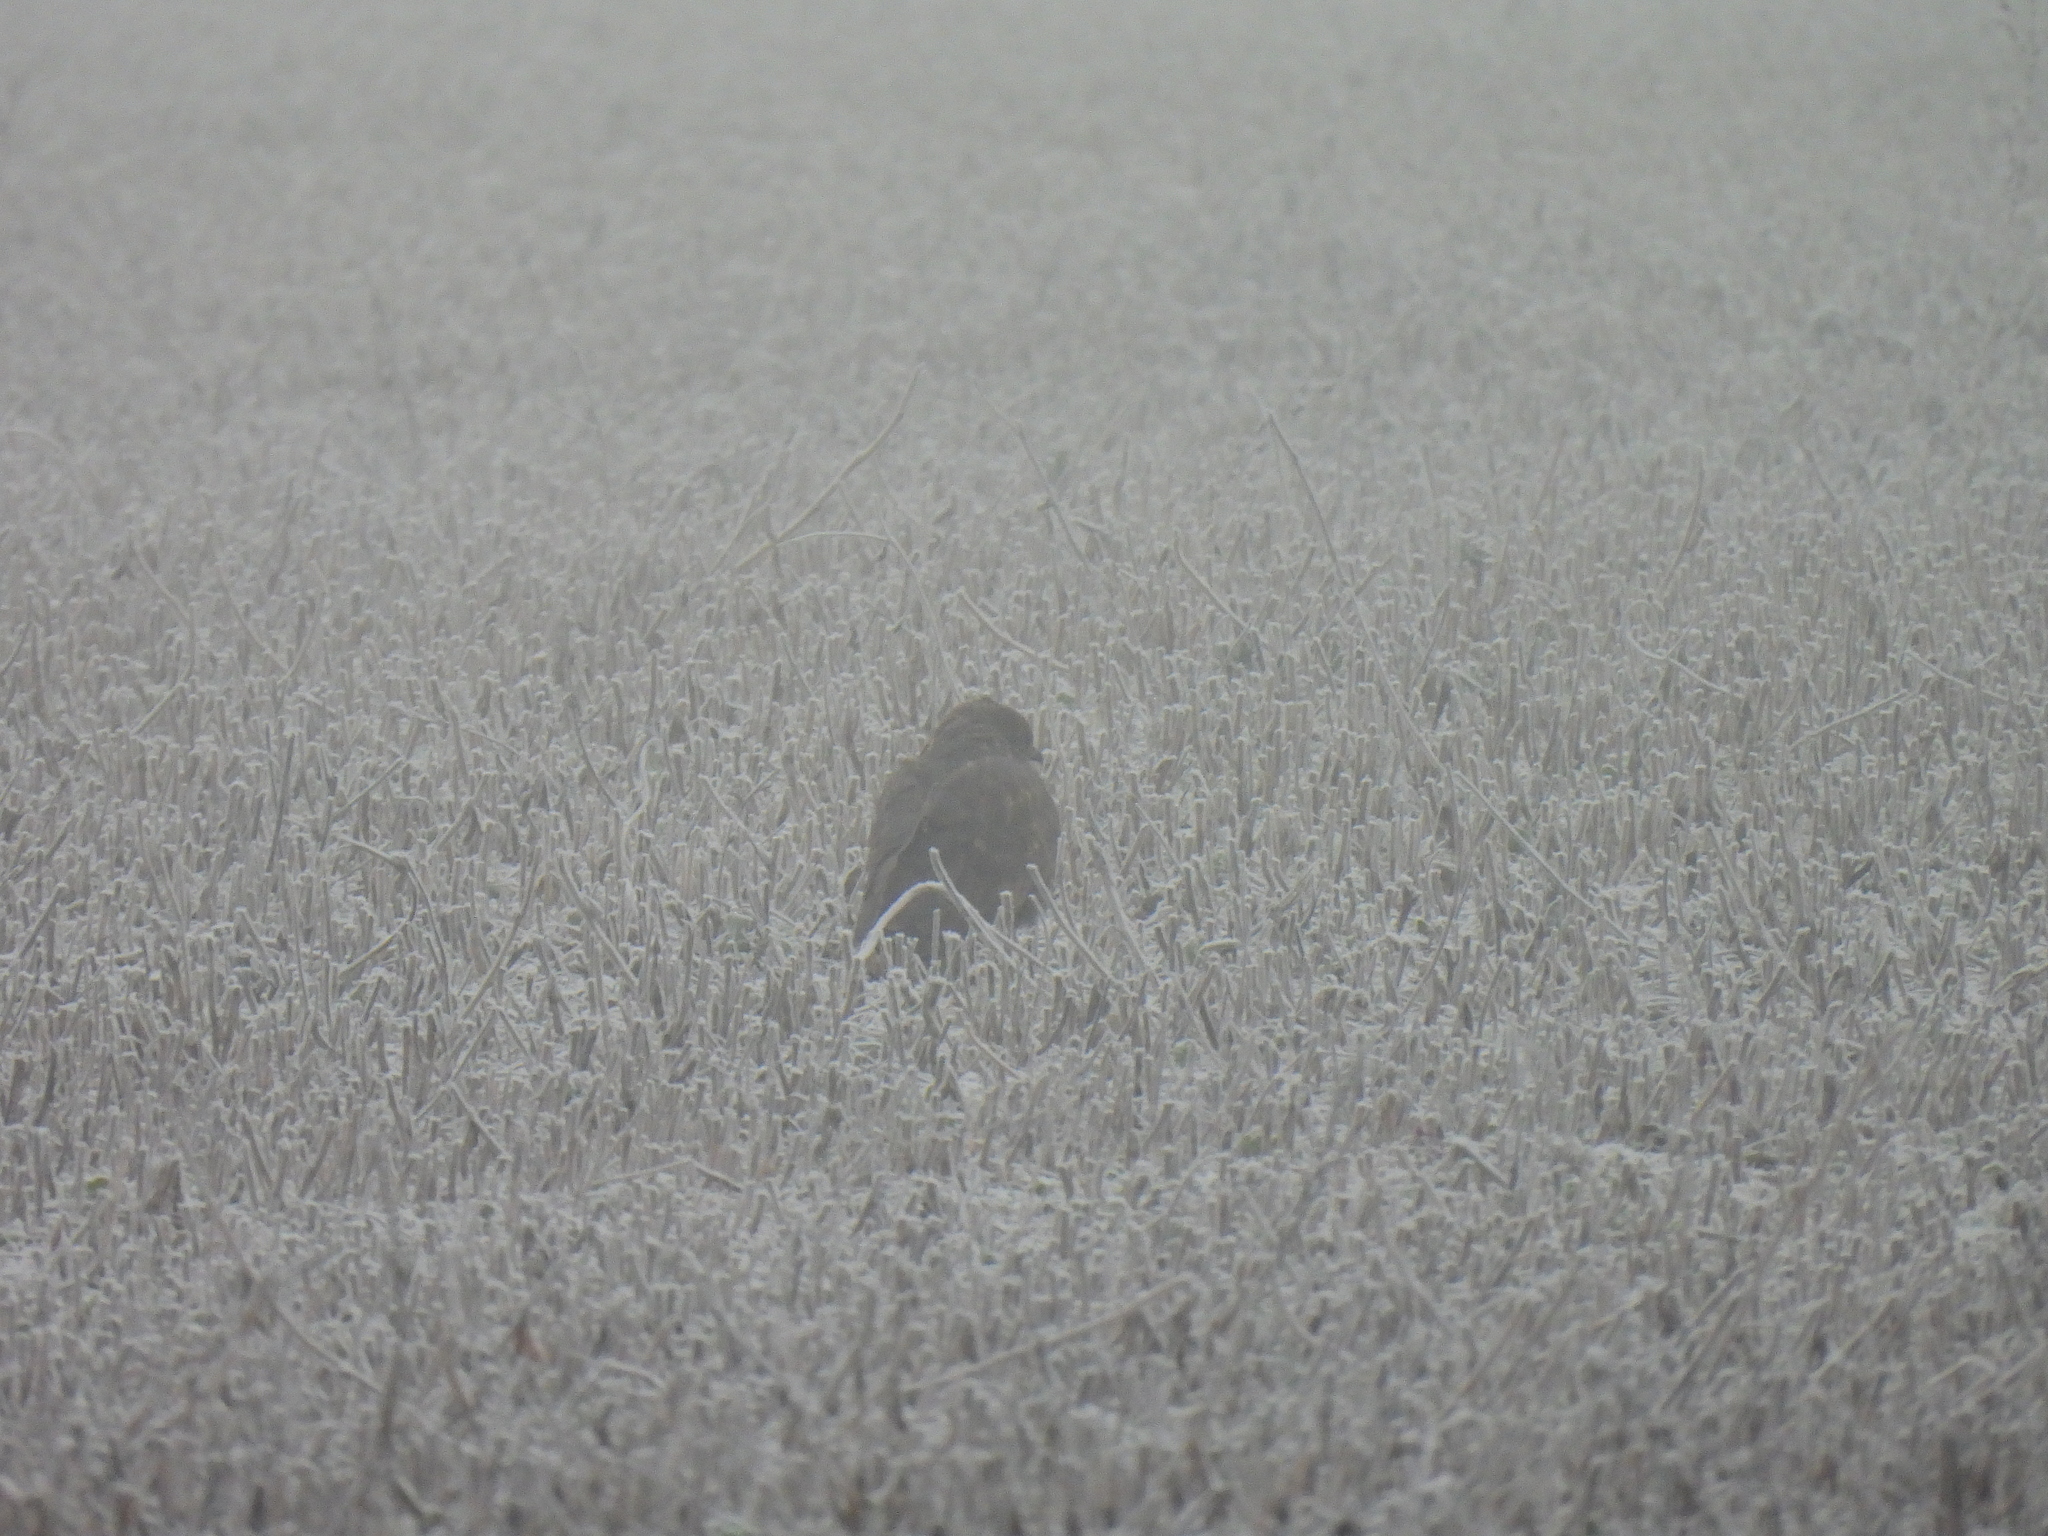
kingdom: Animalia
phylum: Chordata
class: Aves
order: Accipitriformes
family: Accipitridae
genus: Buteo
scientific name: Buteo buteo
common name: Common buzzard
